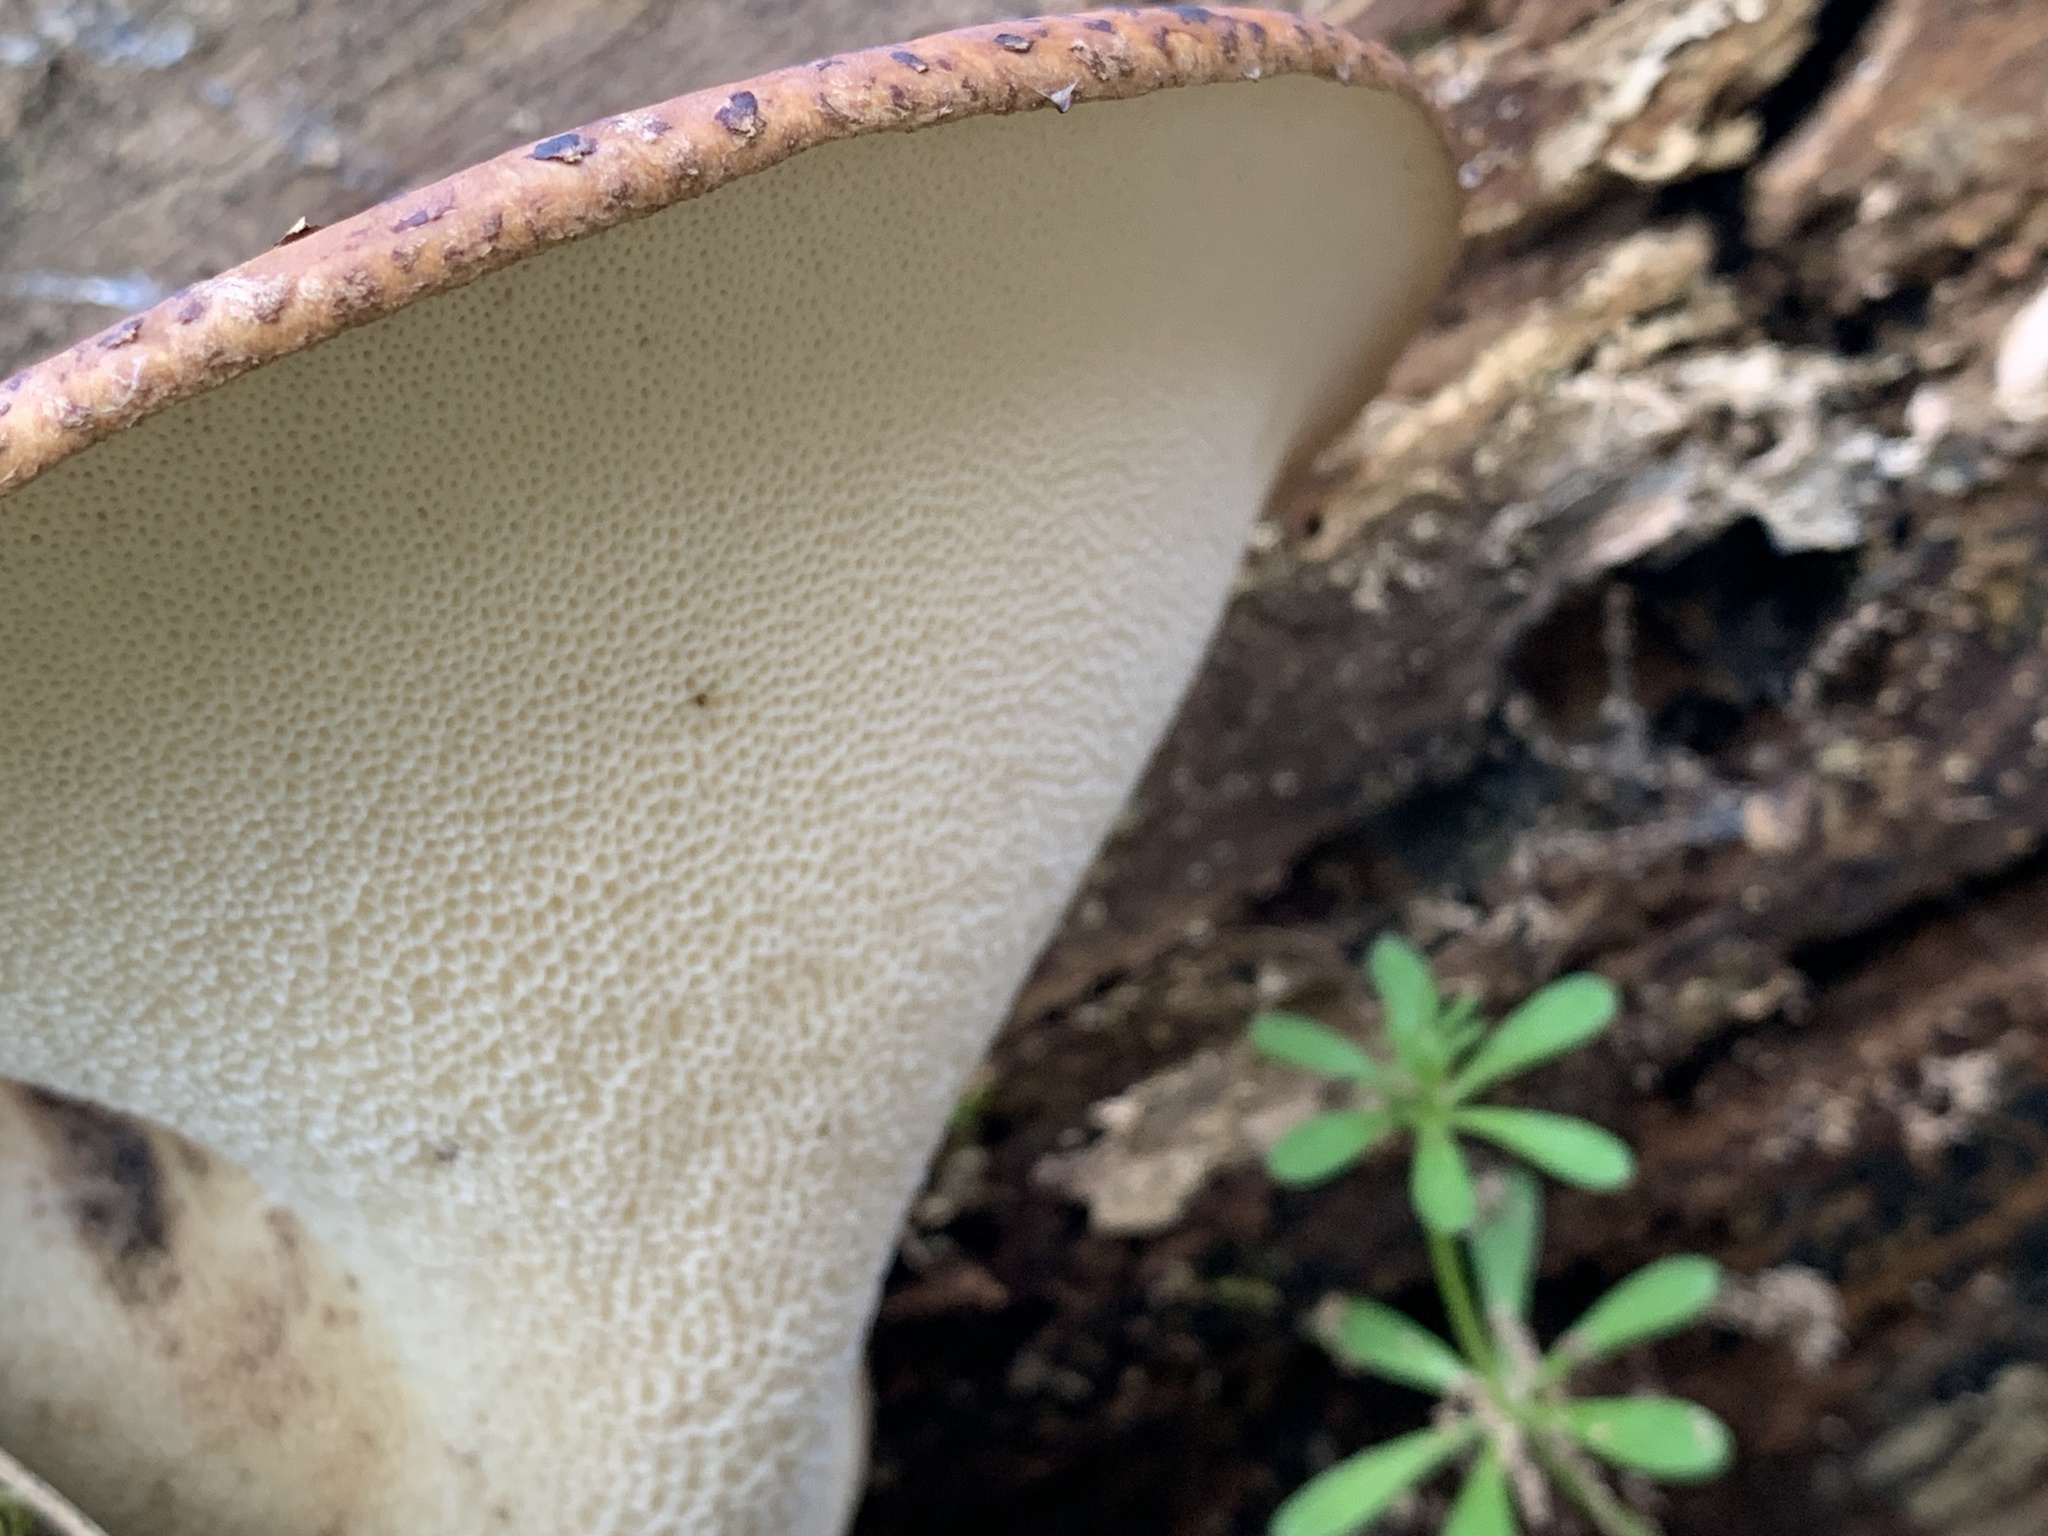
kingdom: Fungi
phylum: Basidiomycota
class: Agaricomycetes
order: Polyporales
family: Polyporaceae
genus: Cerioporus
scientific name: Cerioporus squamosus
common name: Dryad's saddle
